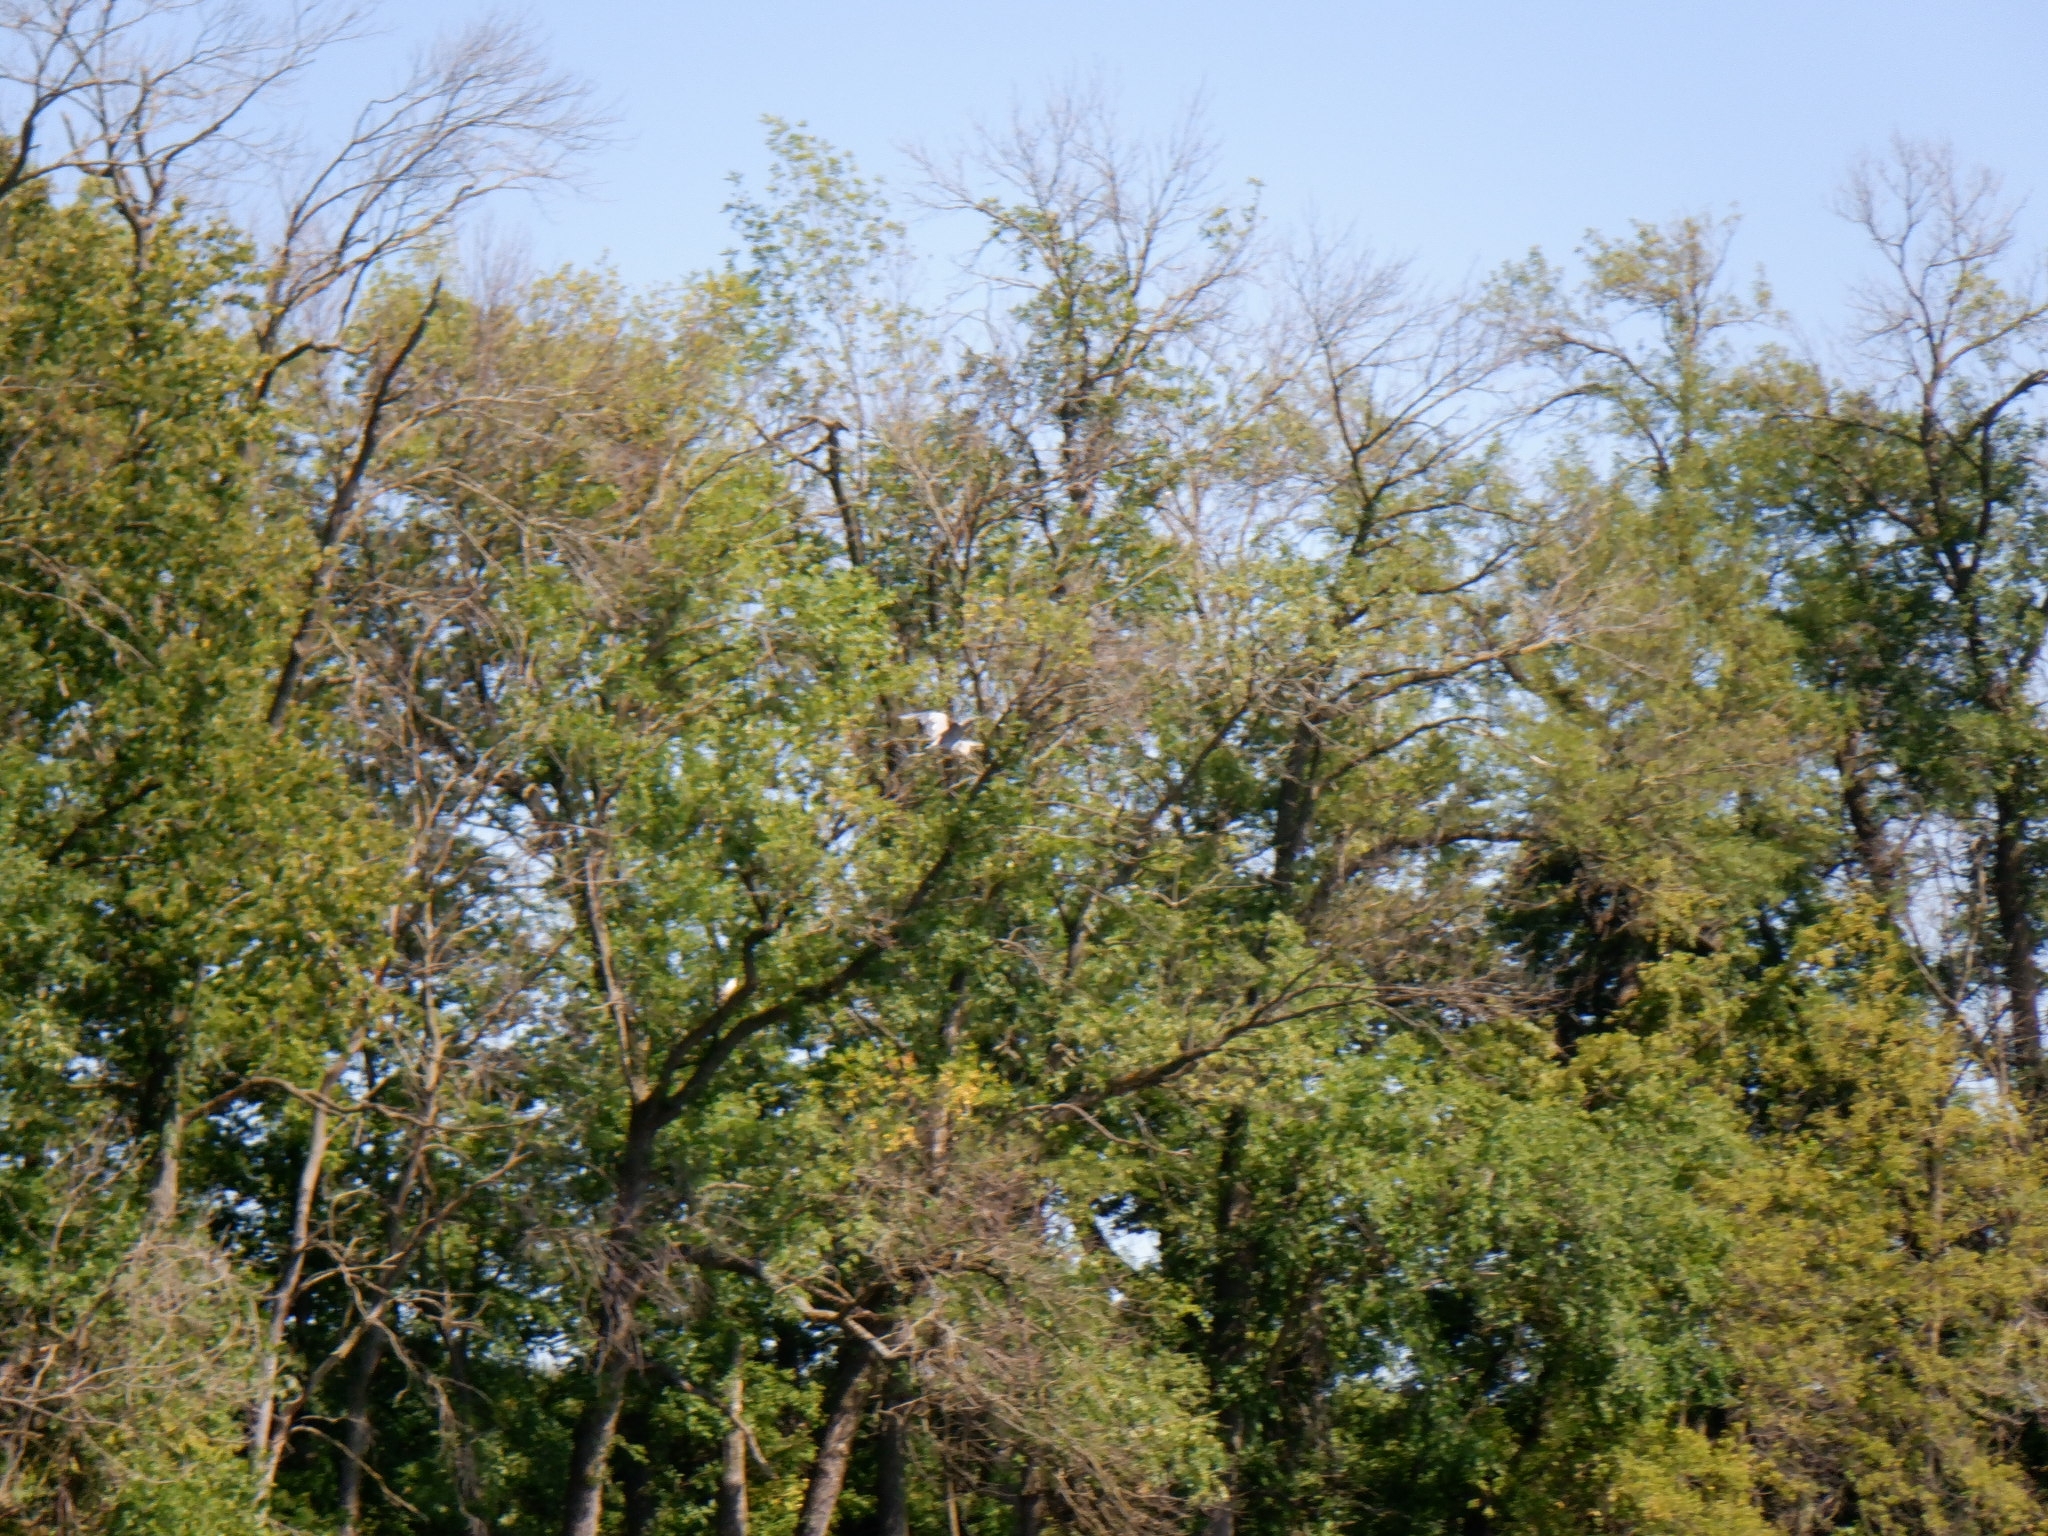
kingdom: Animalia
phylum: Chordata
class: Aves
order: Pelecaniformes
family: Ardeidae
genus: Ardea
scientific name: Ardea herodias
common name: Great blue heron
